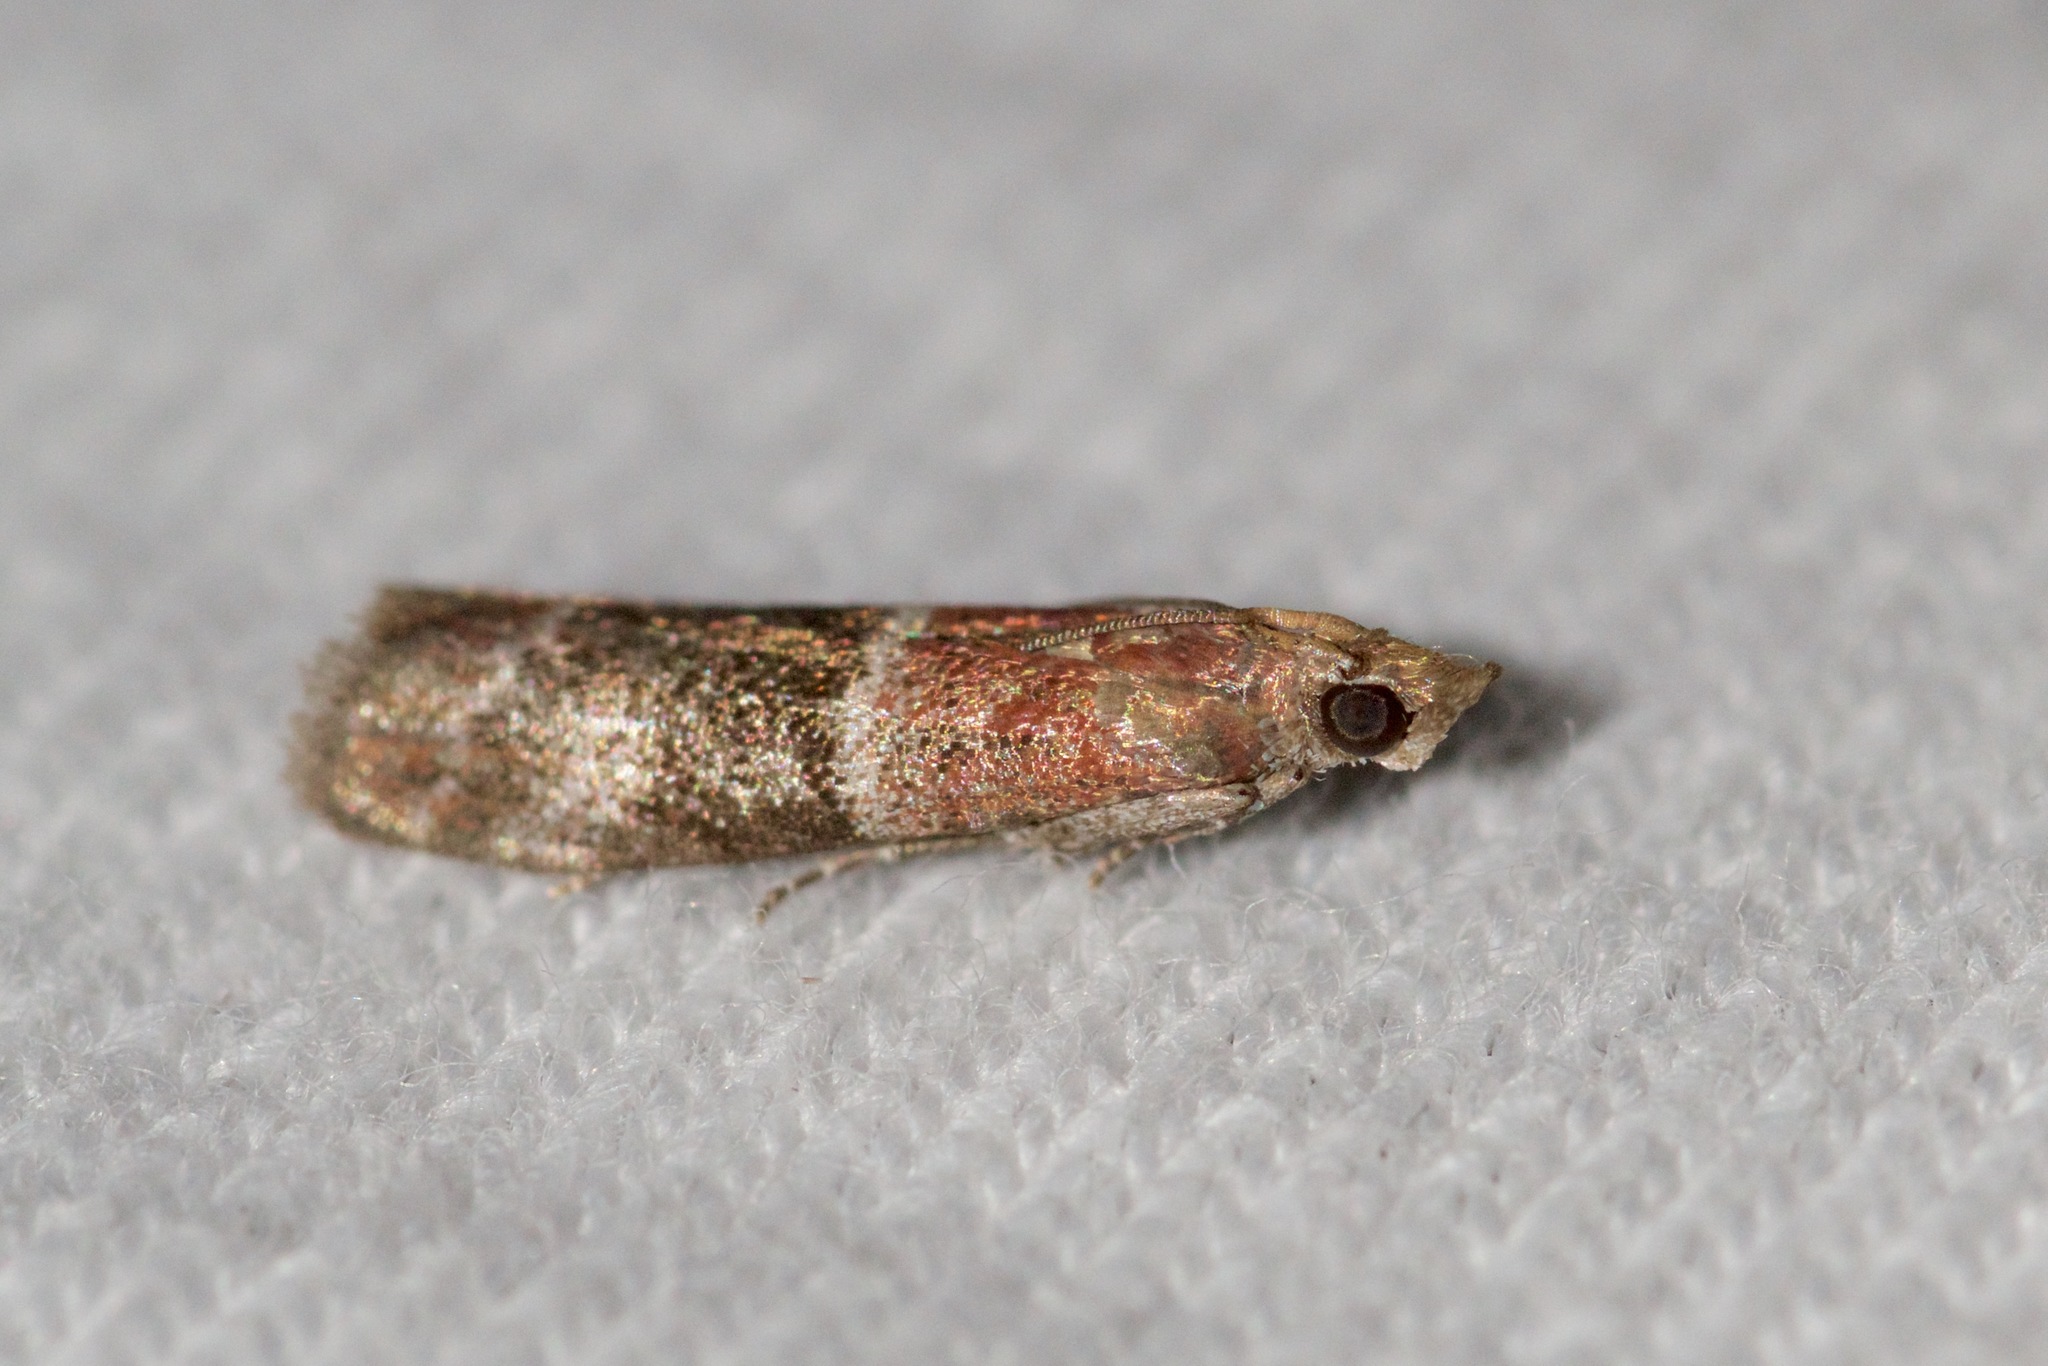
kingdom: Animalia
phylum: Arthropoda
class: Insecta
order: Lepidoptera
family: Pyralidae
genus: Moodna
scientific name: Moodna ostrinella
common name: Darker moodna moth
